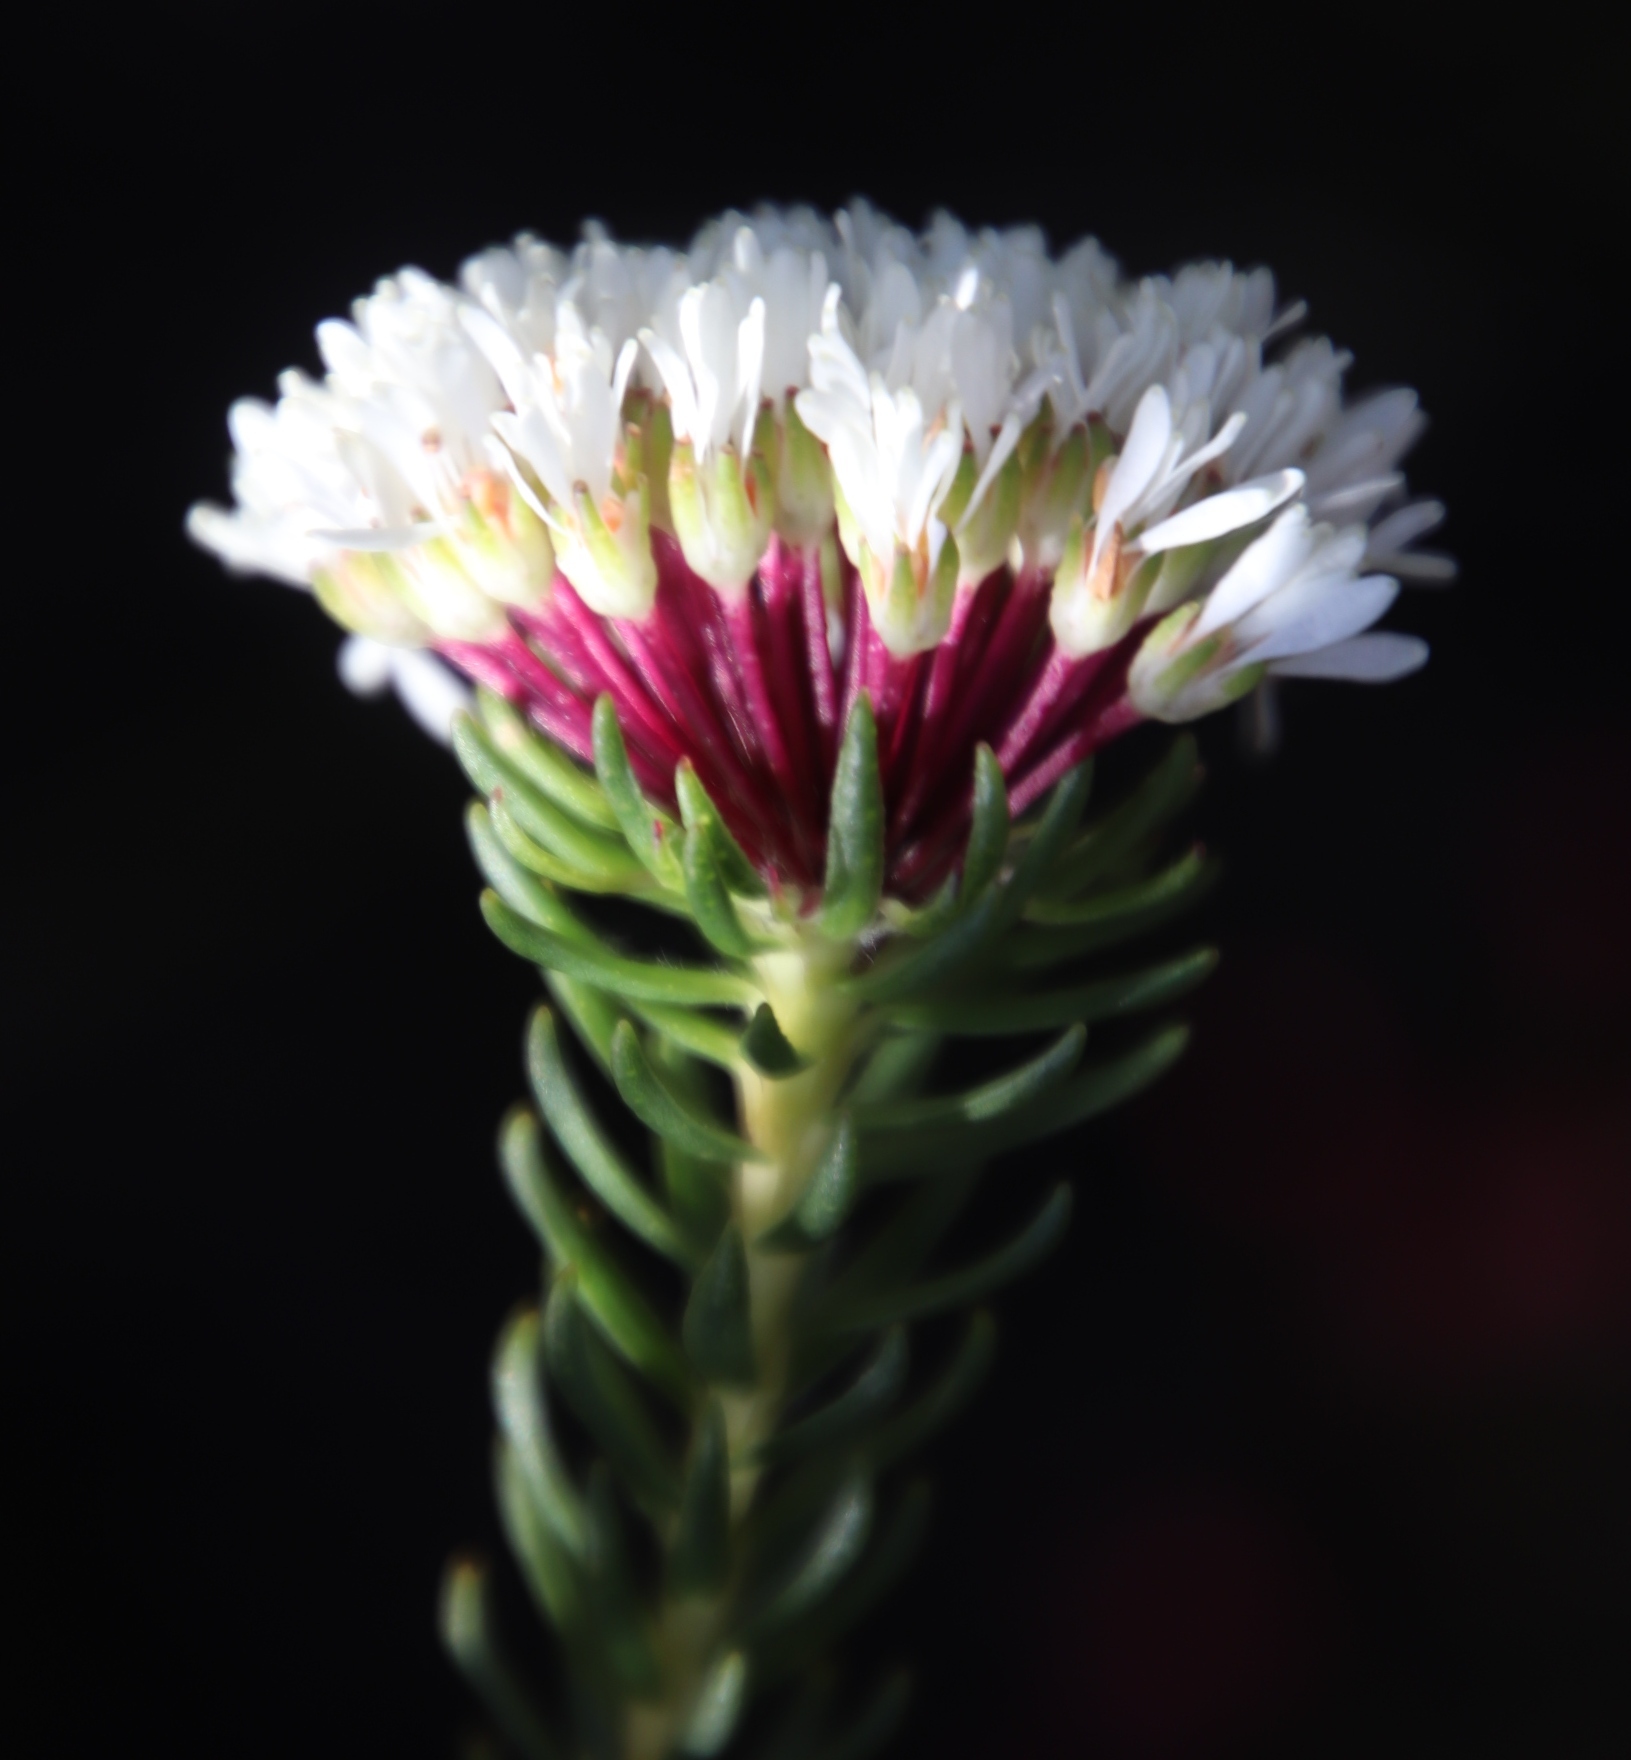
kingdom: Plantae
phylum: Tracheophyta
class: Magnoliopsida
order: Sapindales
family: Rutaceae
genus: Agathosma
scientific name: Agathosma bifida
